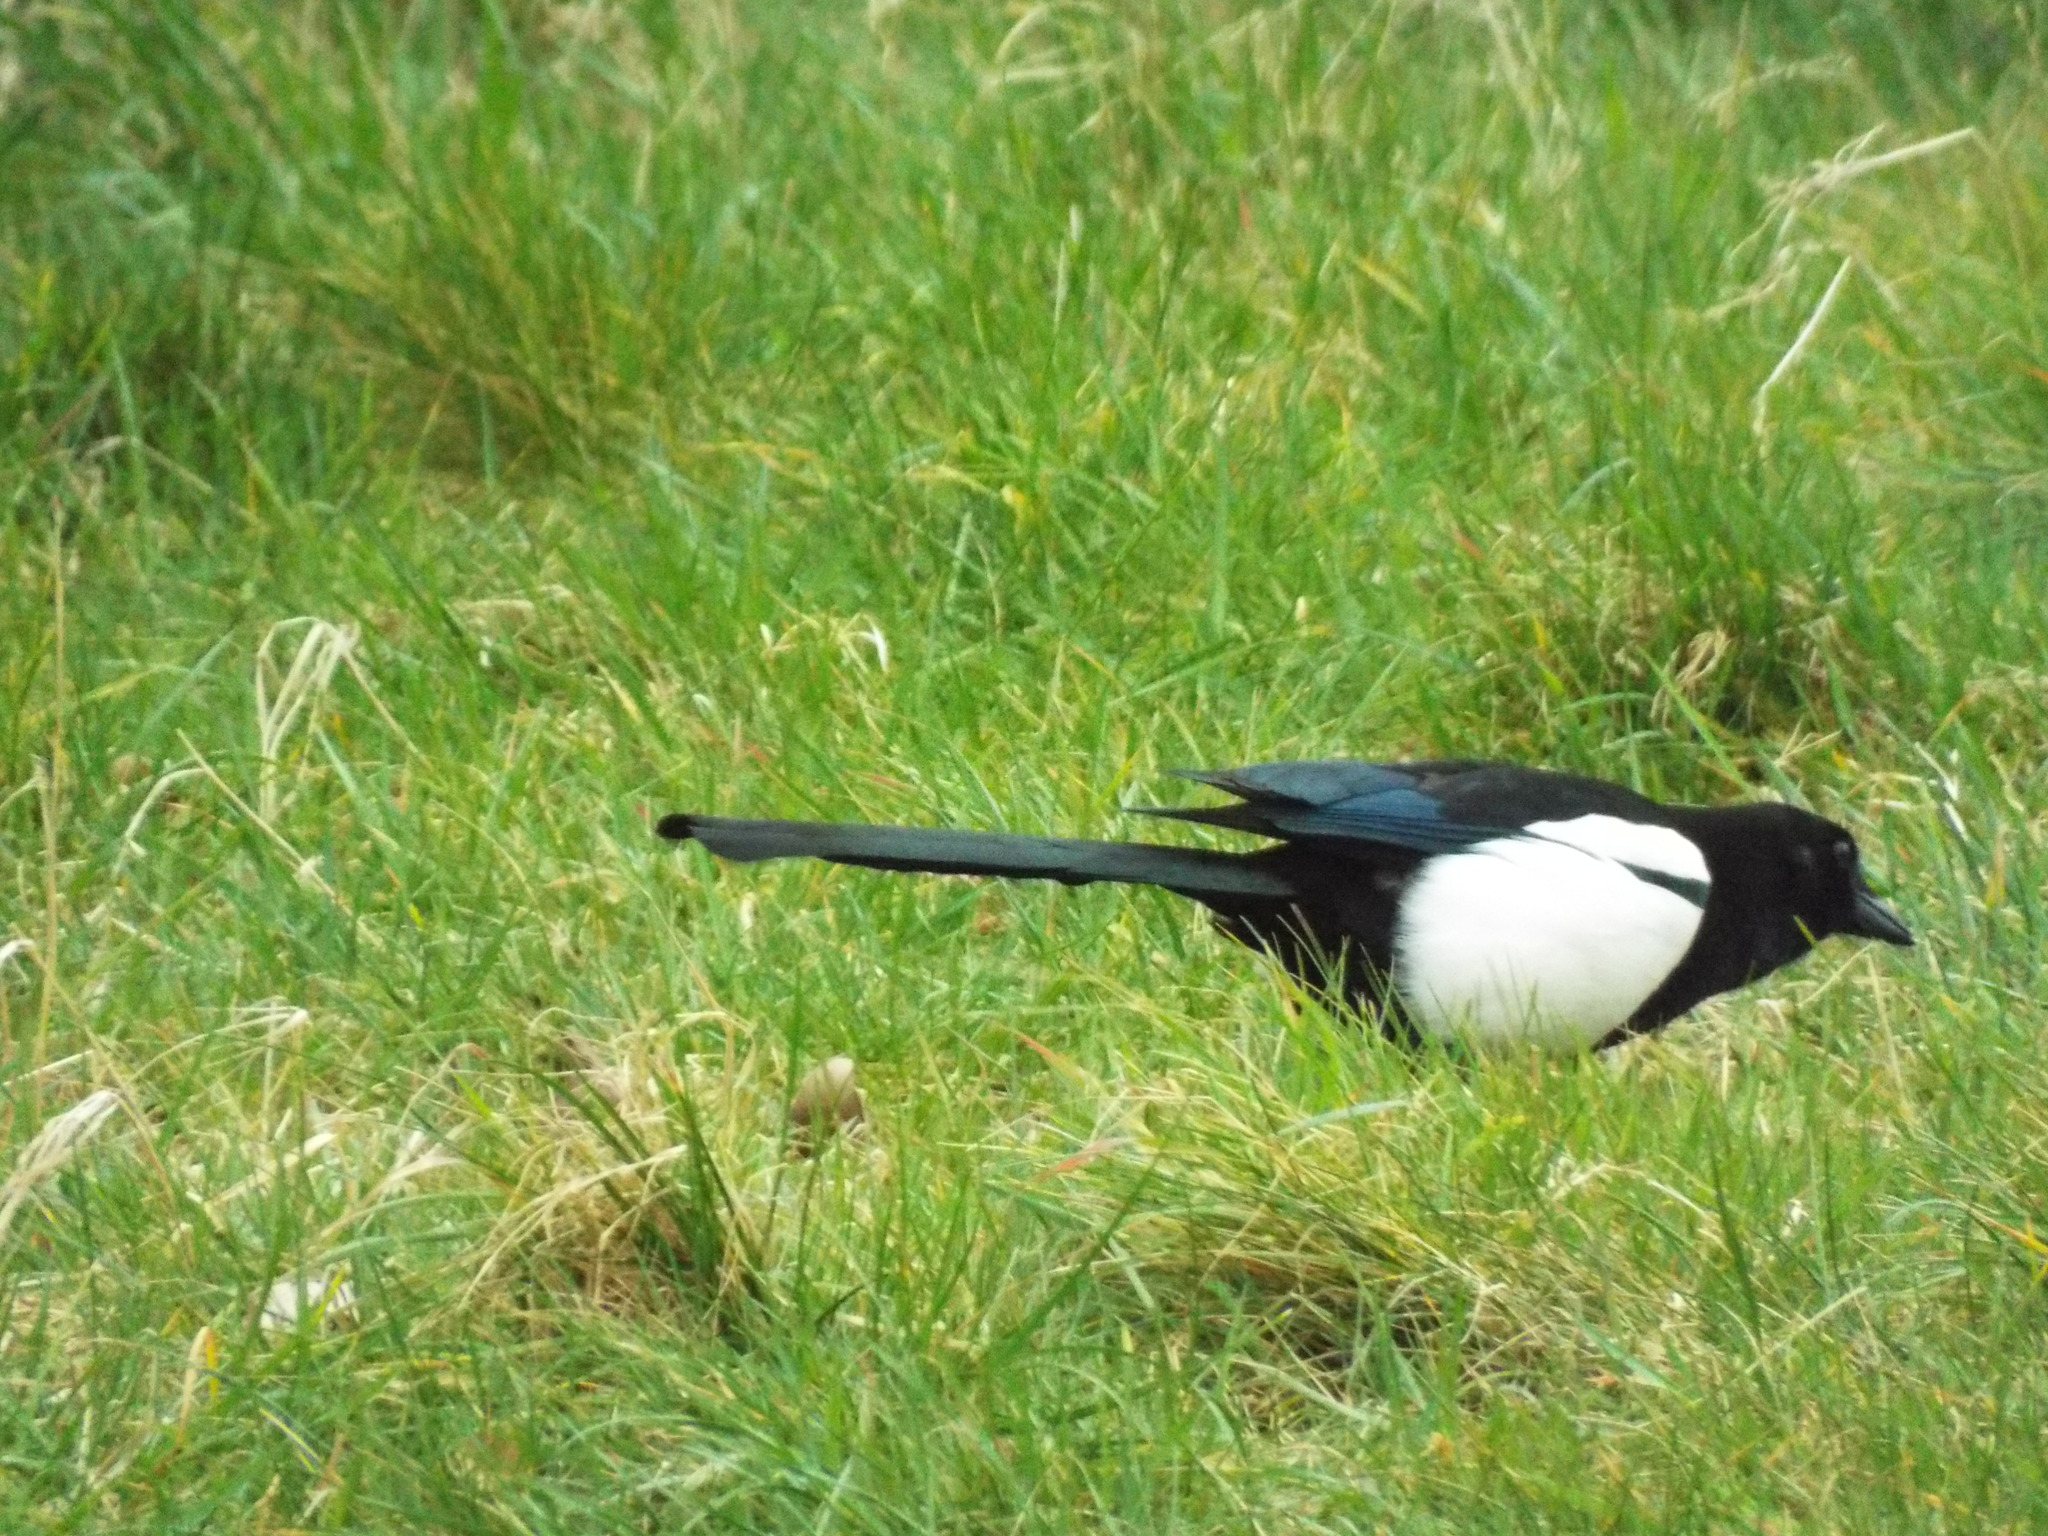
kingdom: Animalia
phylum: Chordata
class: Aves
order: Passeriformes
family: Corvidae
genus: Pica
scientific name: Pica pica
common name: Eurasian magpie
